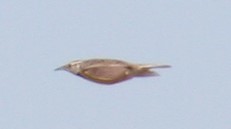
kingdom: Animalia
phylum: Chordata
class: Aves
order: Passeriformes
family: Icteridae
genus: Sturnella
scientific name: Sturnella neglecta
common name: Western meadowlark
